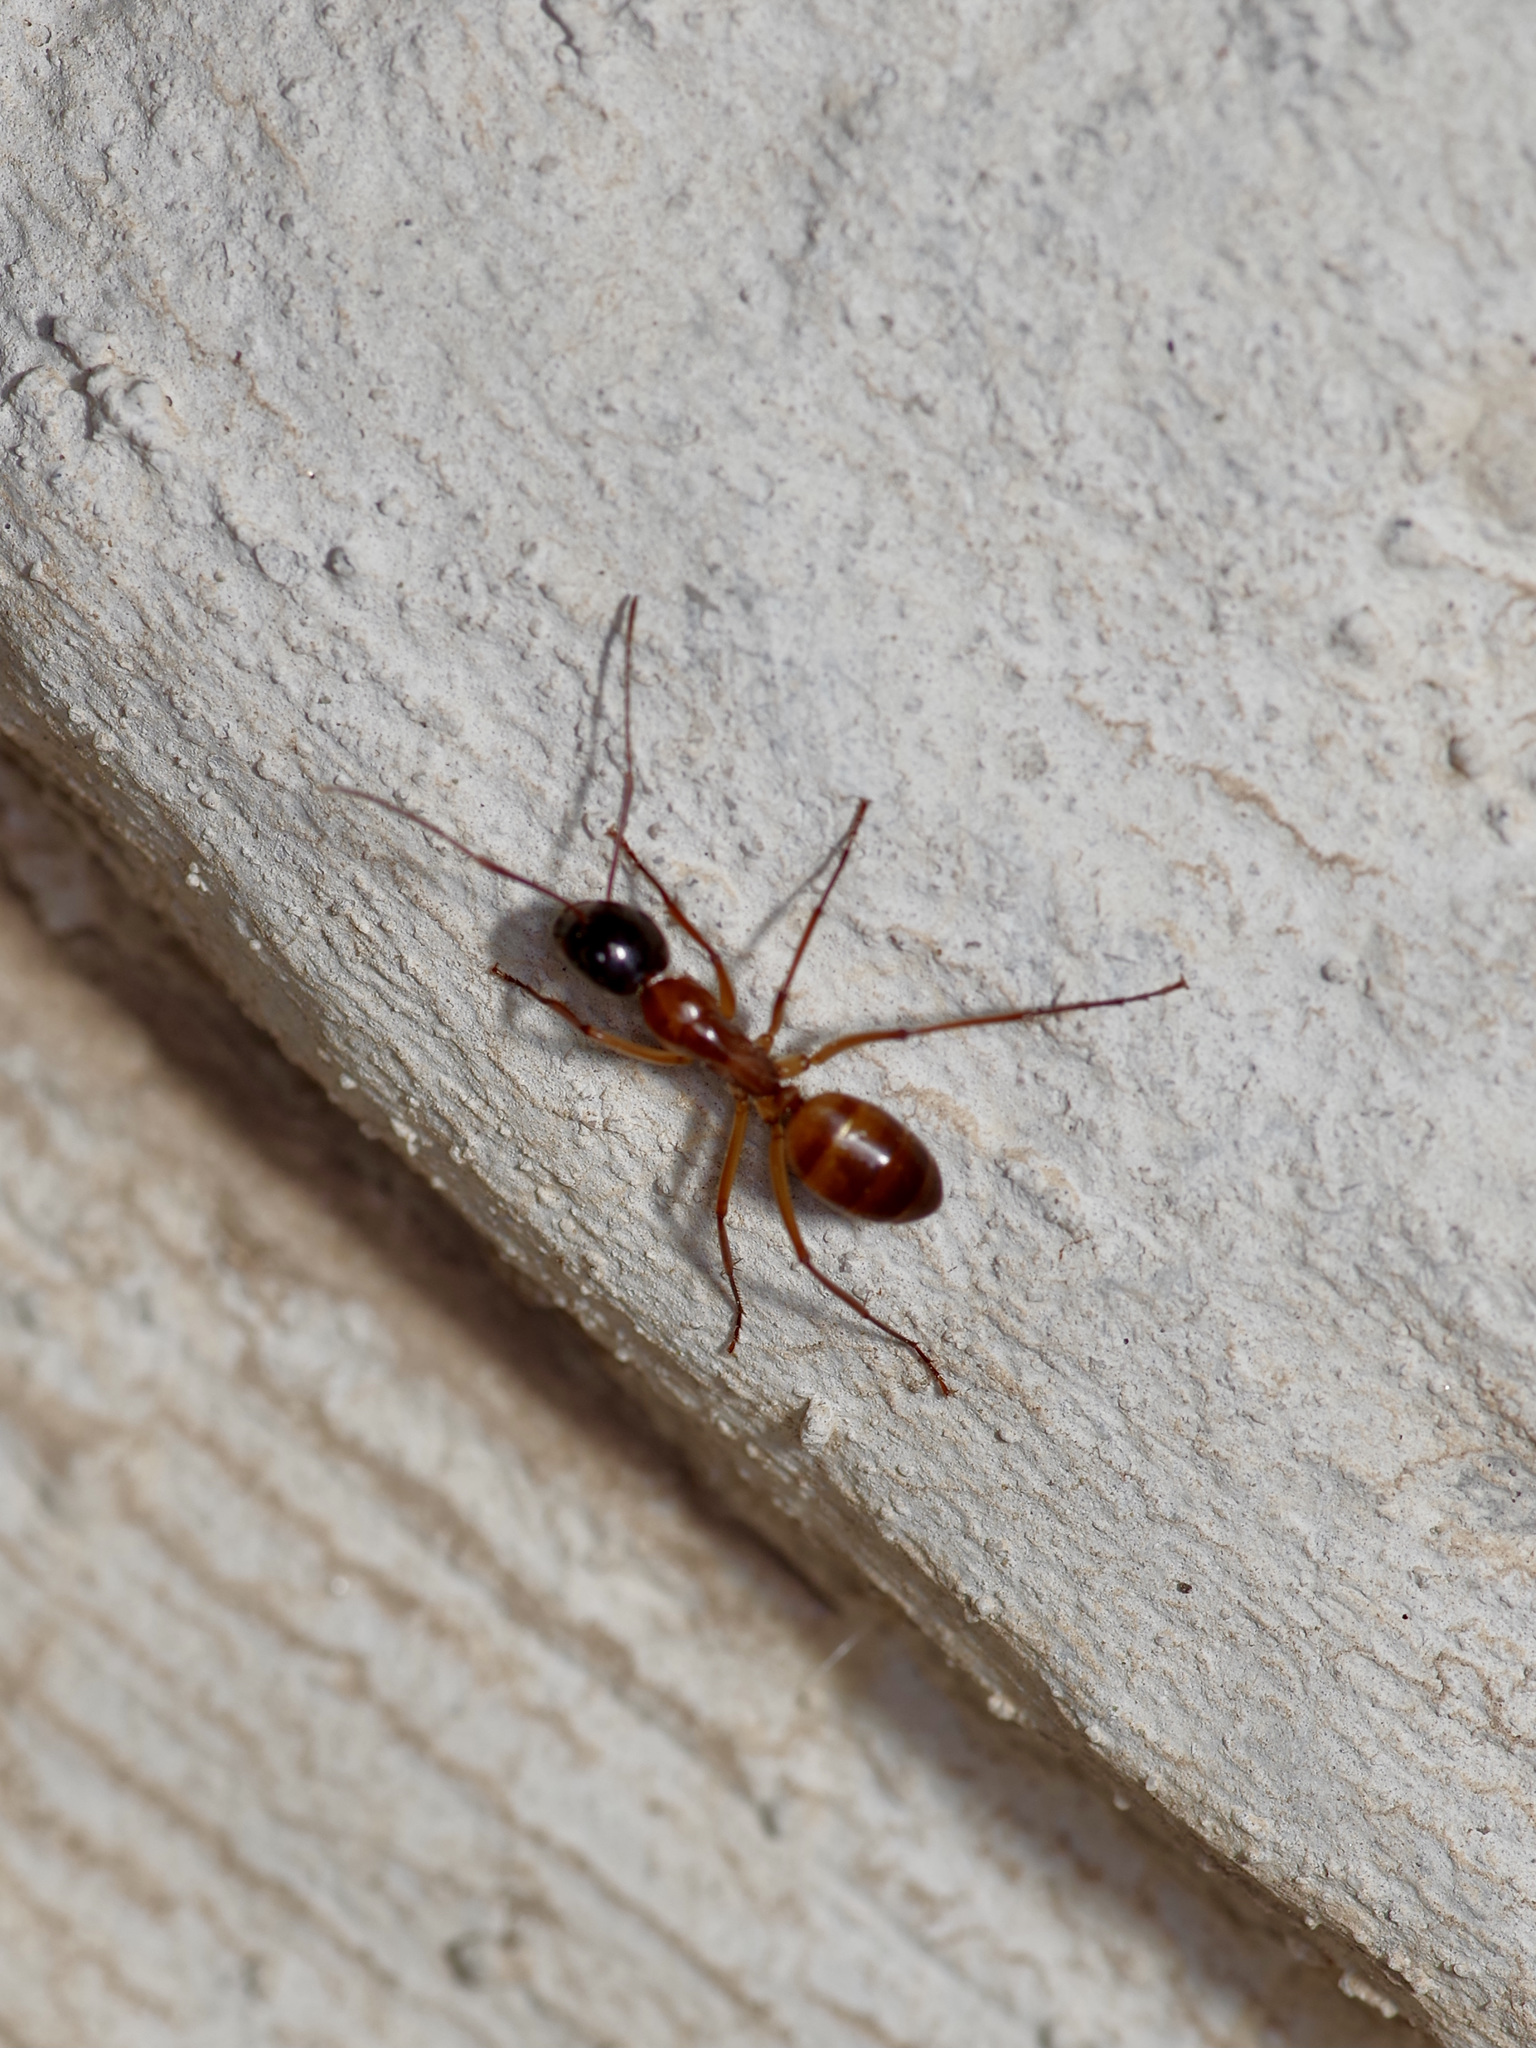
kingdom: Animalia
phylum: Arthropoda
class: Insecta
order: Hymenoptera
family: Formicidae
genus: Camponotus
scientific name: Camponotus americanus
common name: American carpenter ant
